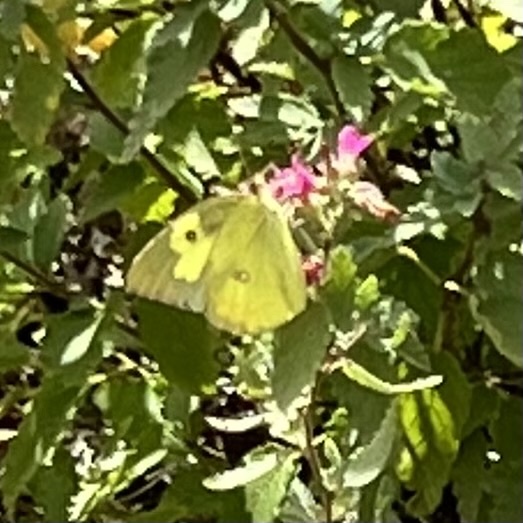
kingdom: Animalia
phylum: Arthropoda
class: Insecta
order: Lepidoptera
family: Pieridae
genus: Zerene
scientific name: Zerene cesonia
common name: Southern dogface
